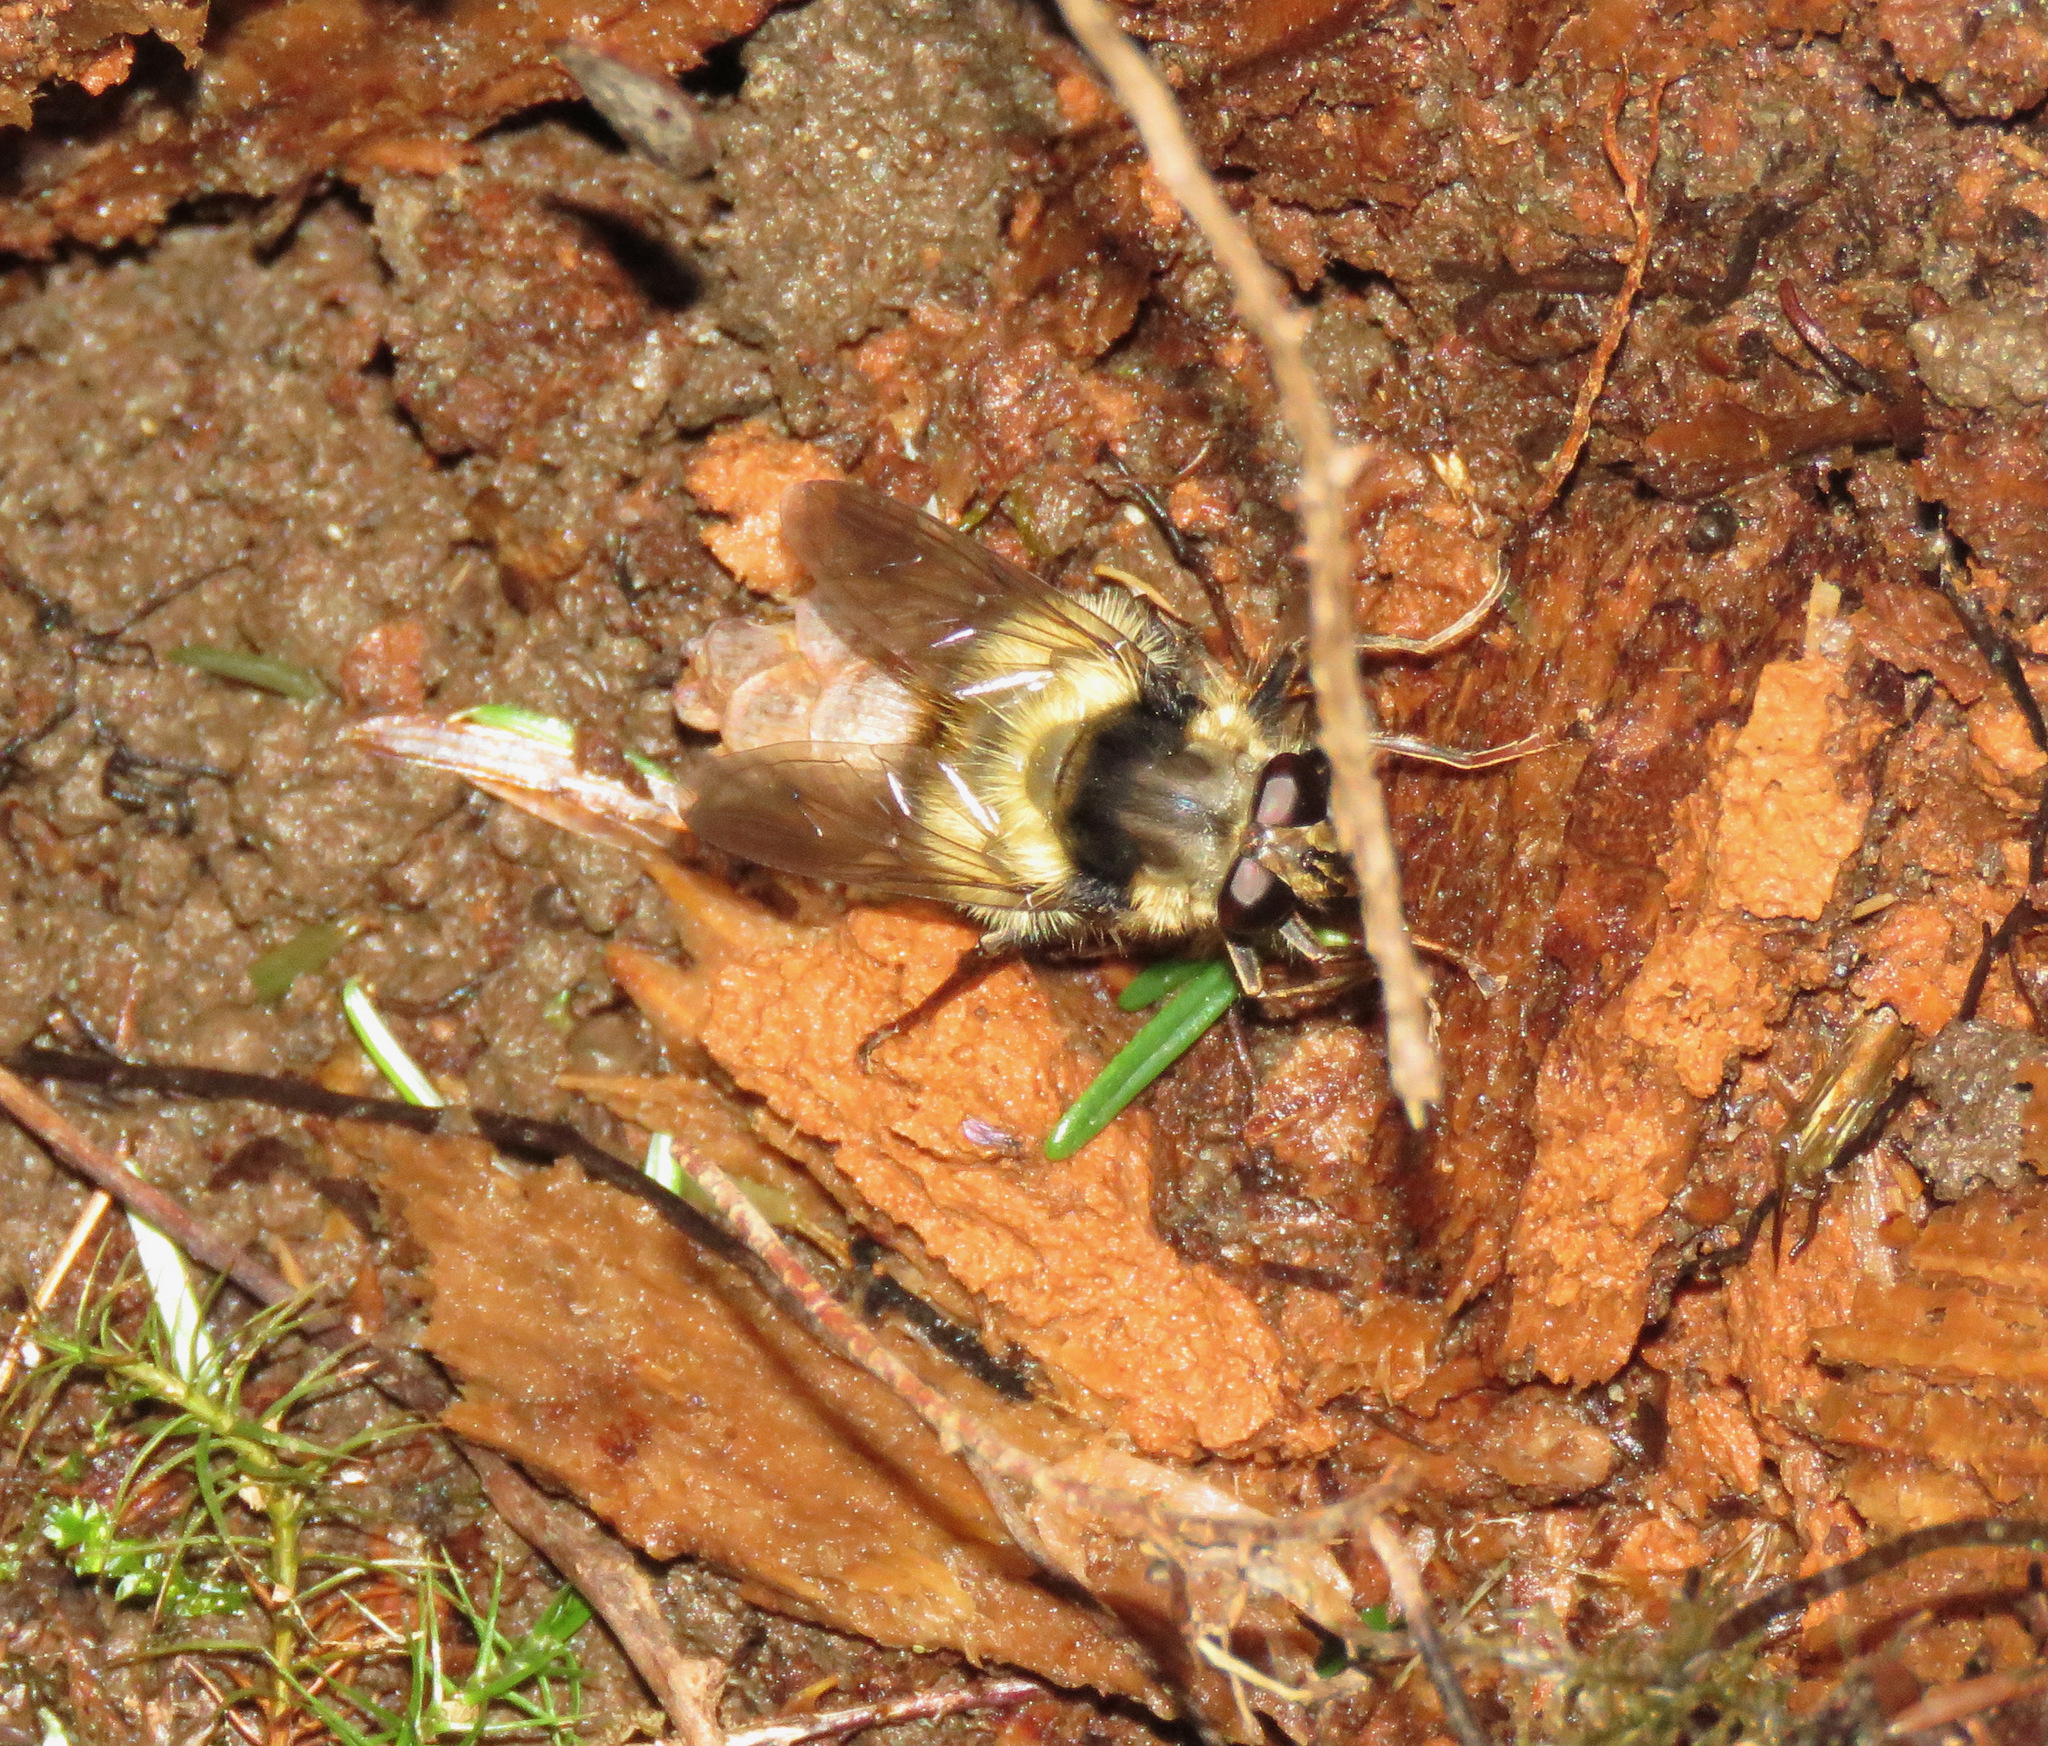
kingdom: Animalia
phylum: Arthropoda
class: Insecta
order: Diptera
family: Syrphidae
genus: Criorhina
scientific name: Criorhina bubulcus
